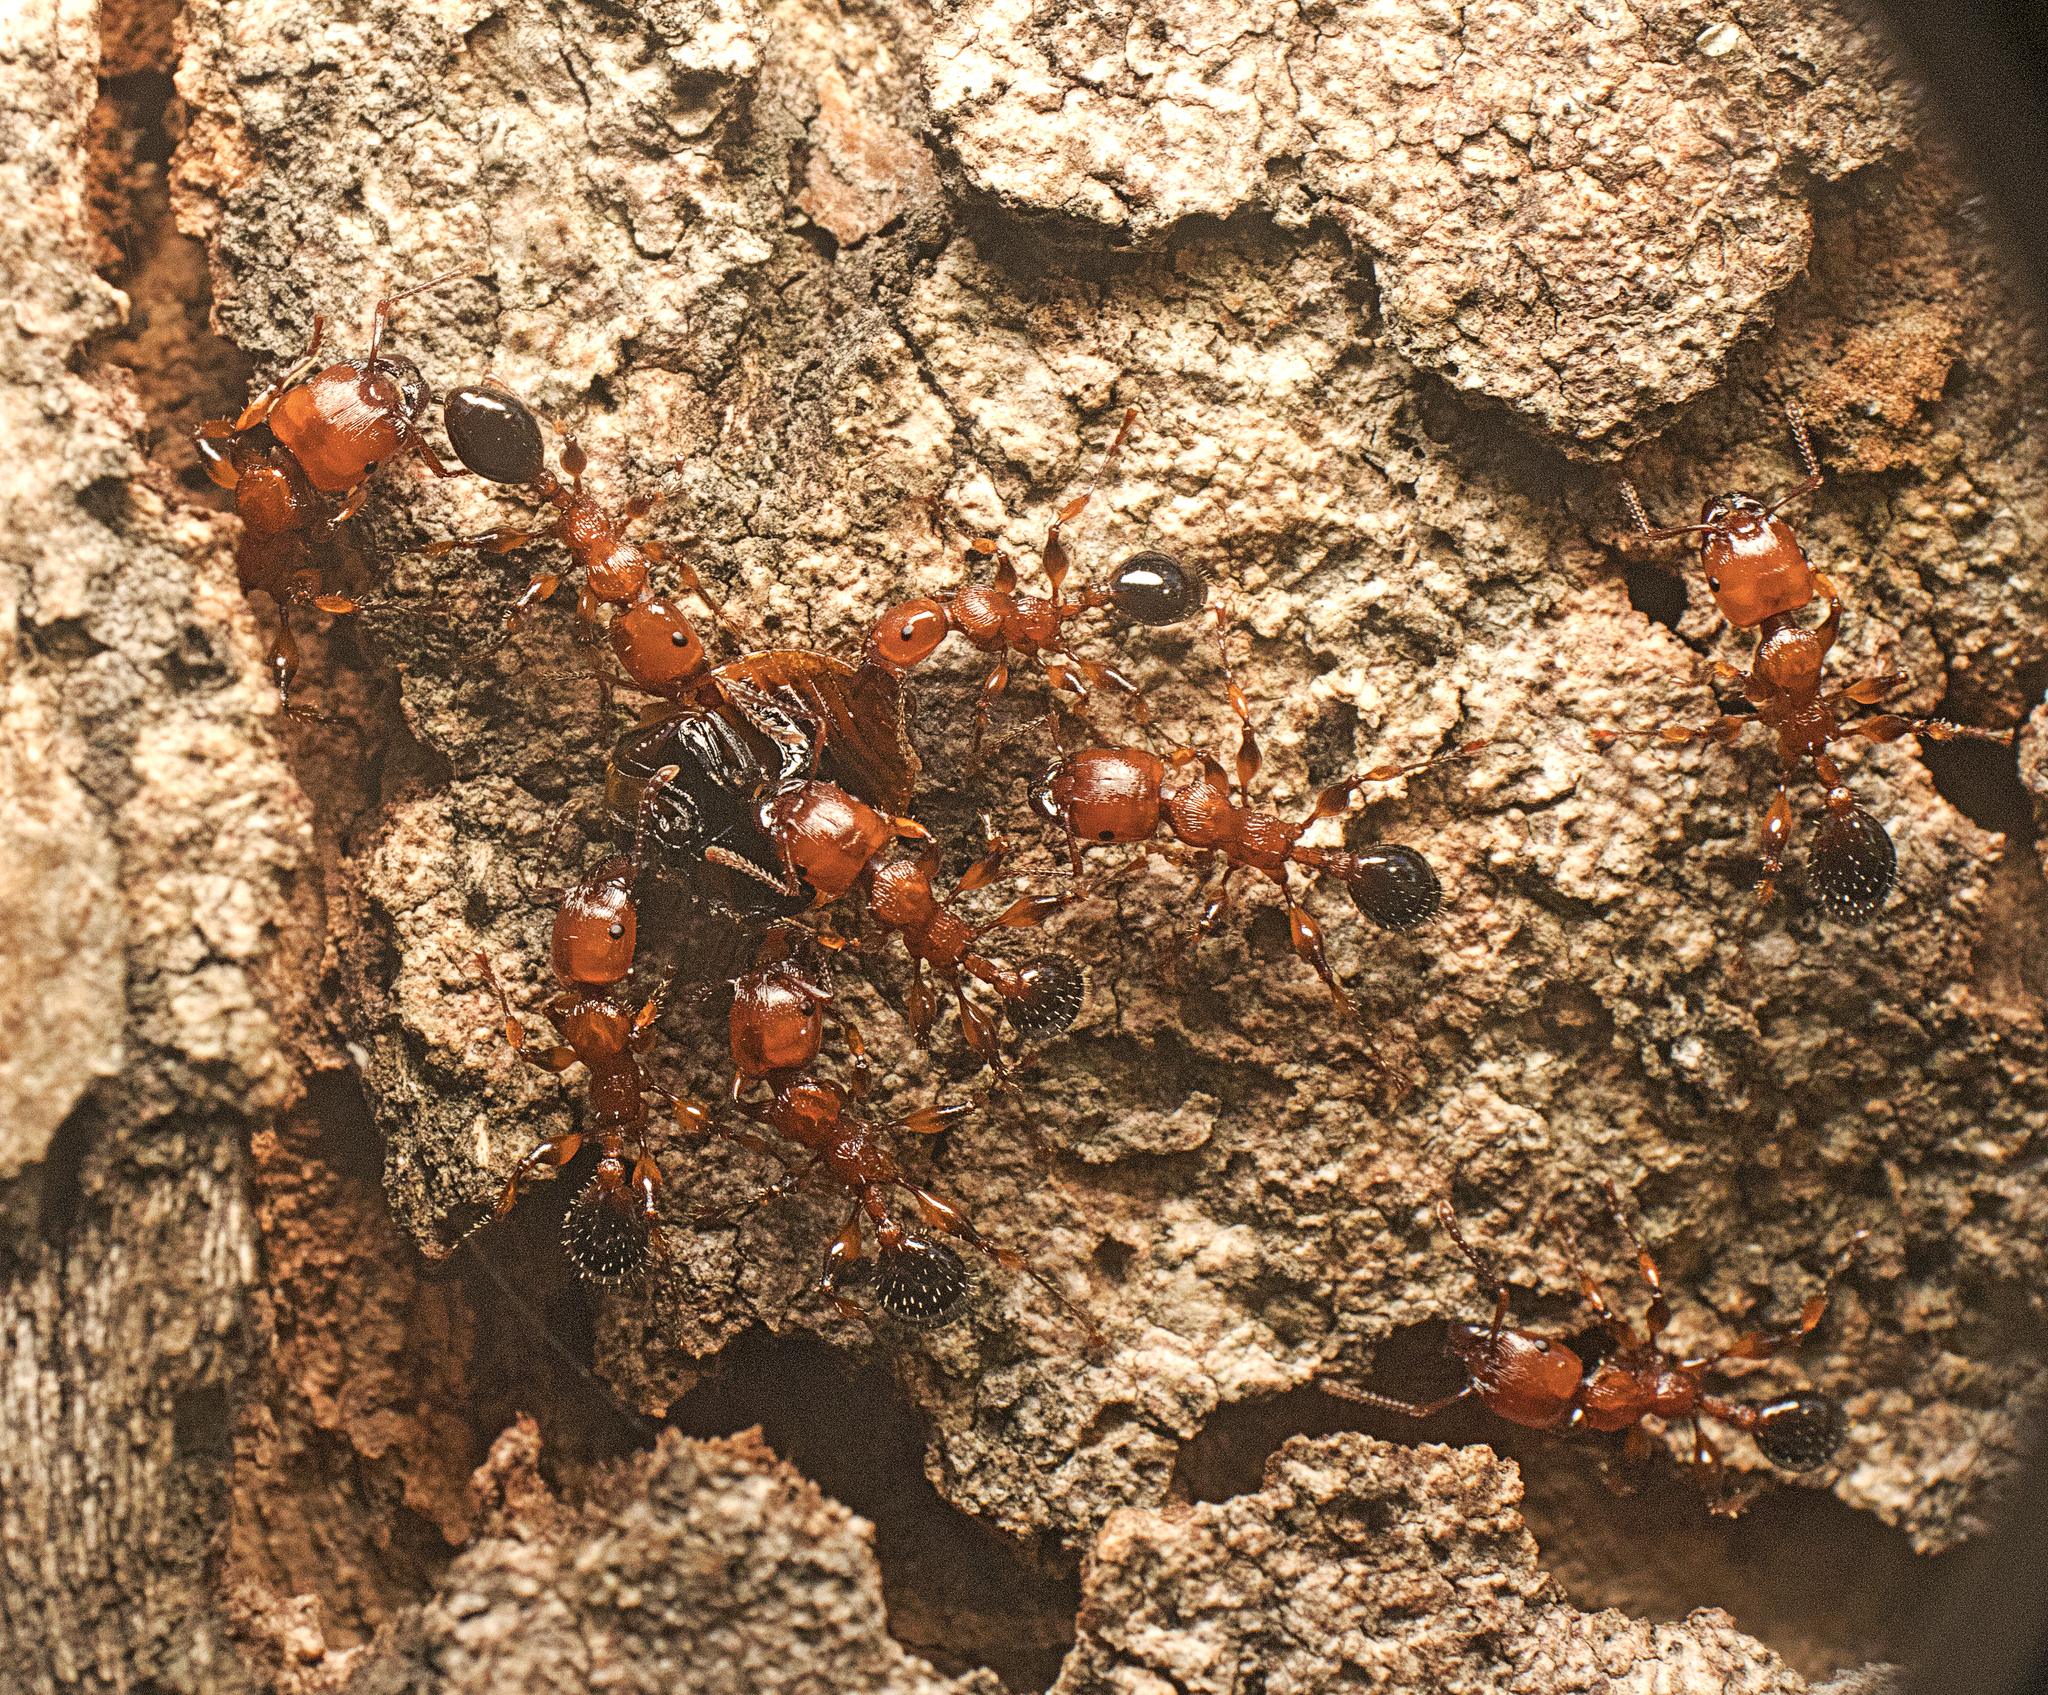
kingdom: Animalia
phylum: Arthropoda
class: Insecta
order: Hymenoptera
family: Formicidae
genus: Podomyrma
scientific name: Podomyrma gratiosa
